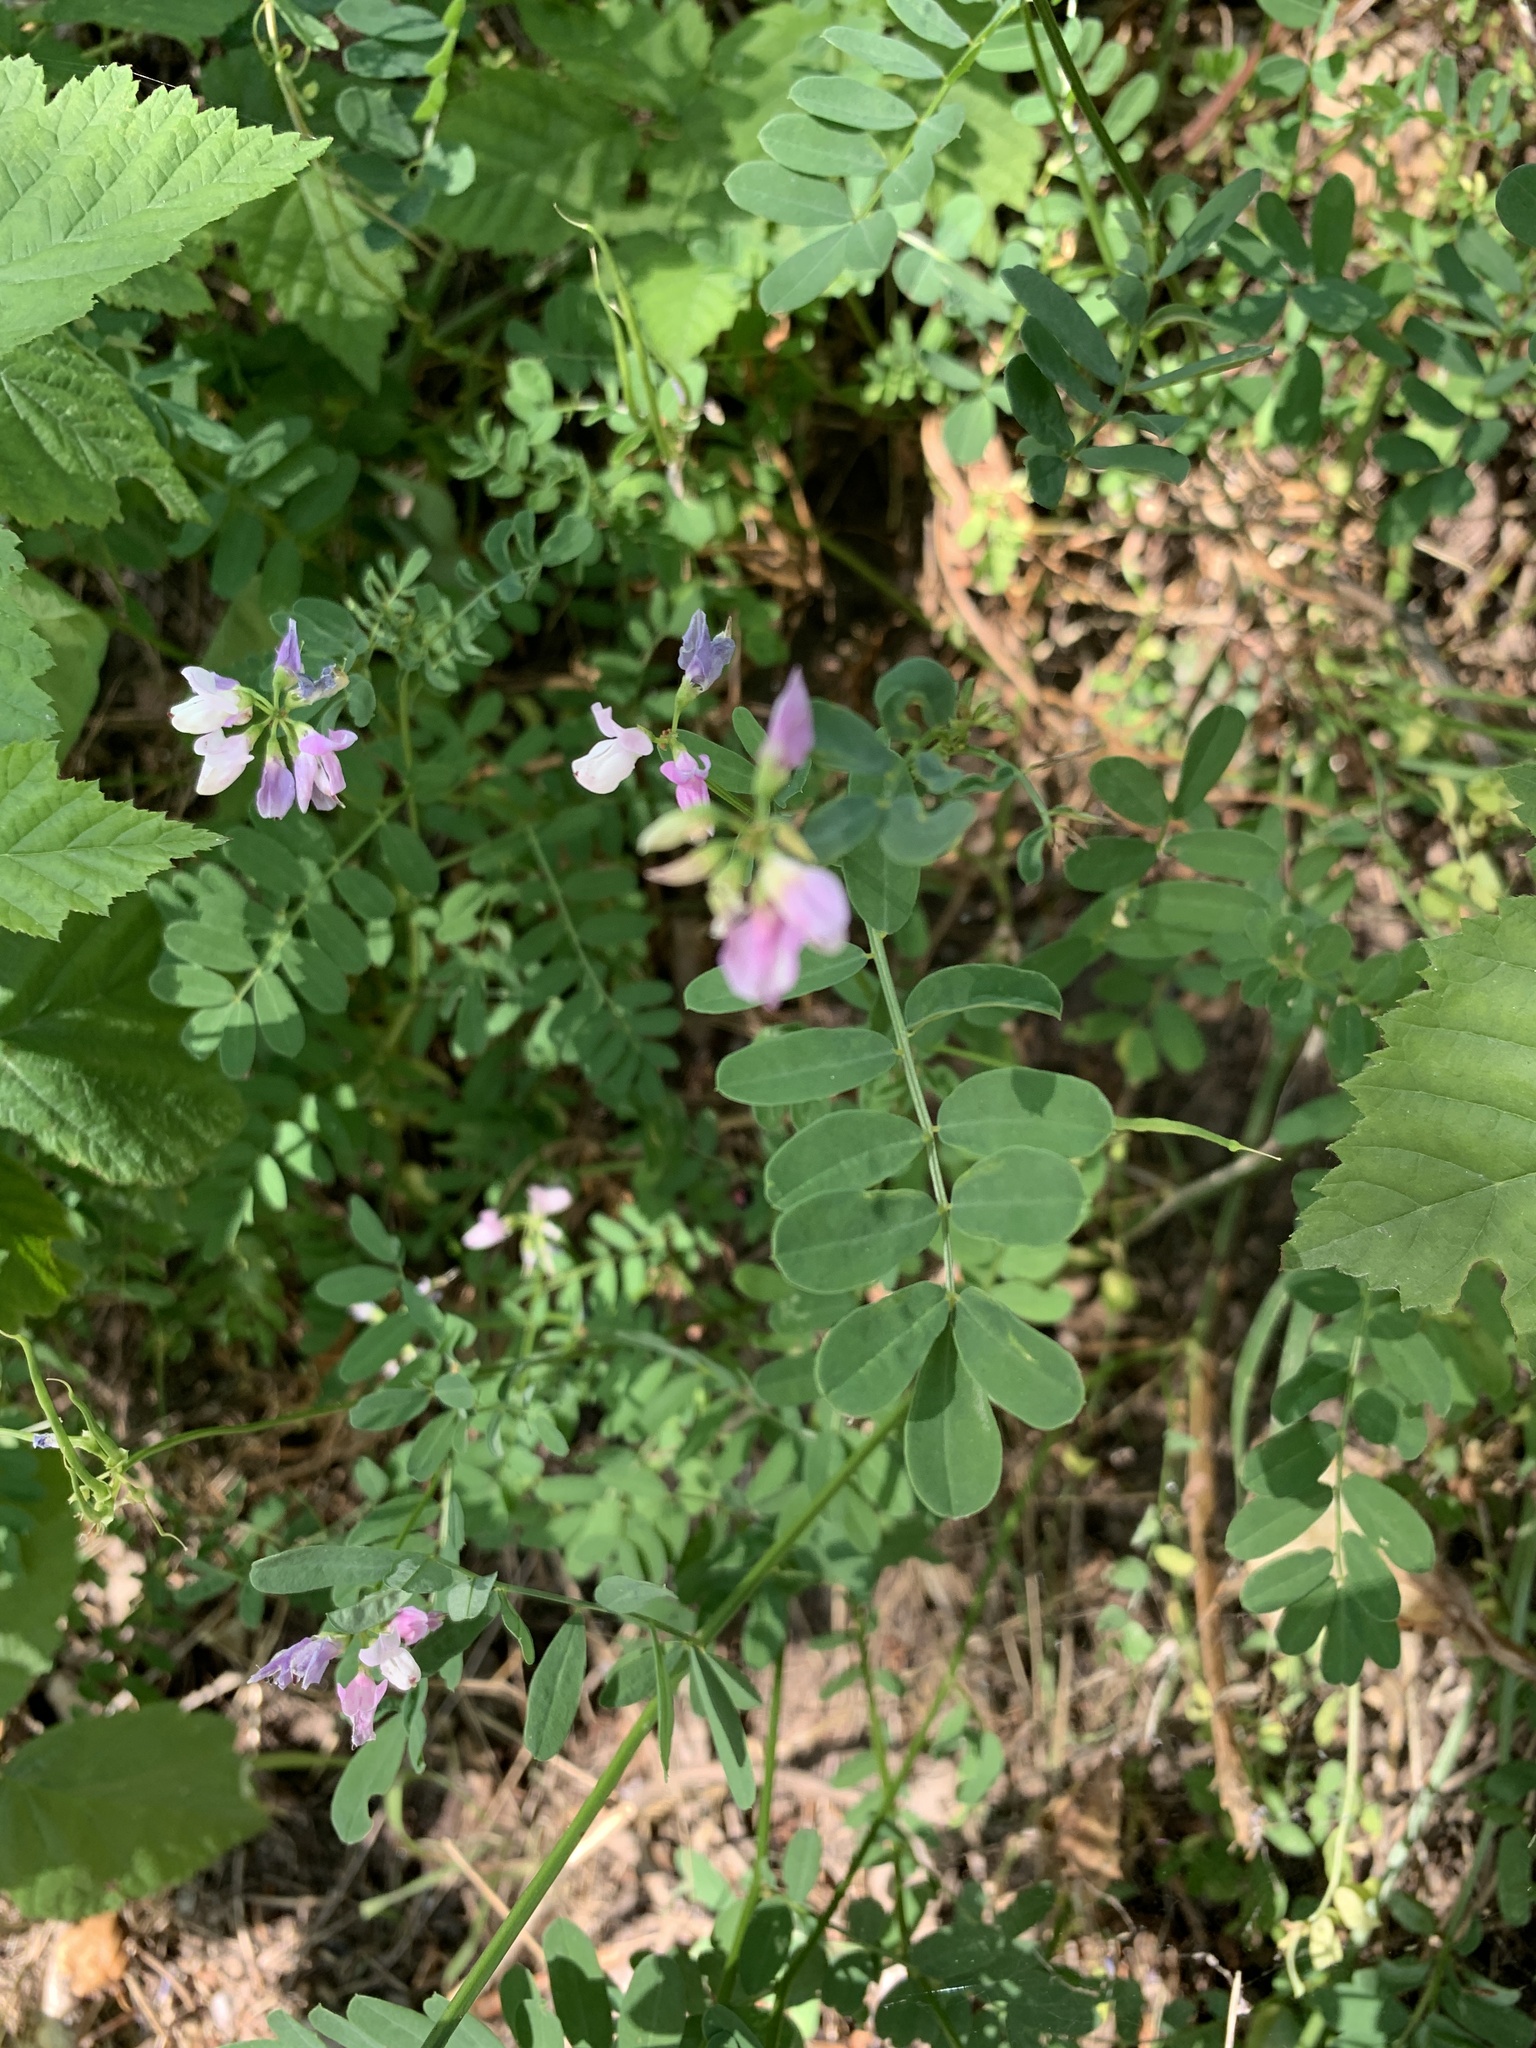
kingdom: Plantae
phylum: Tracheophyta
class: Magnoliopsida
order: Fabales
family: Fabaceae
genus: Coronilla
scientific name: Coronilla varia
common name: Crownvetch
